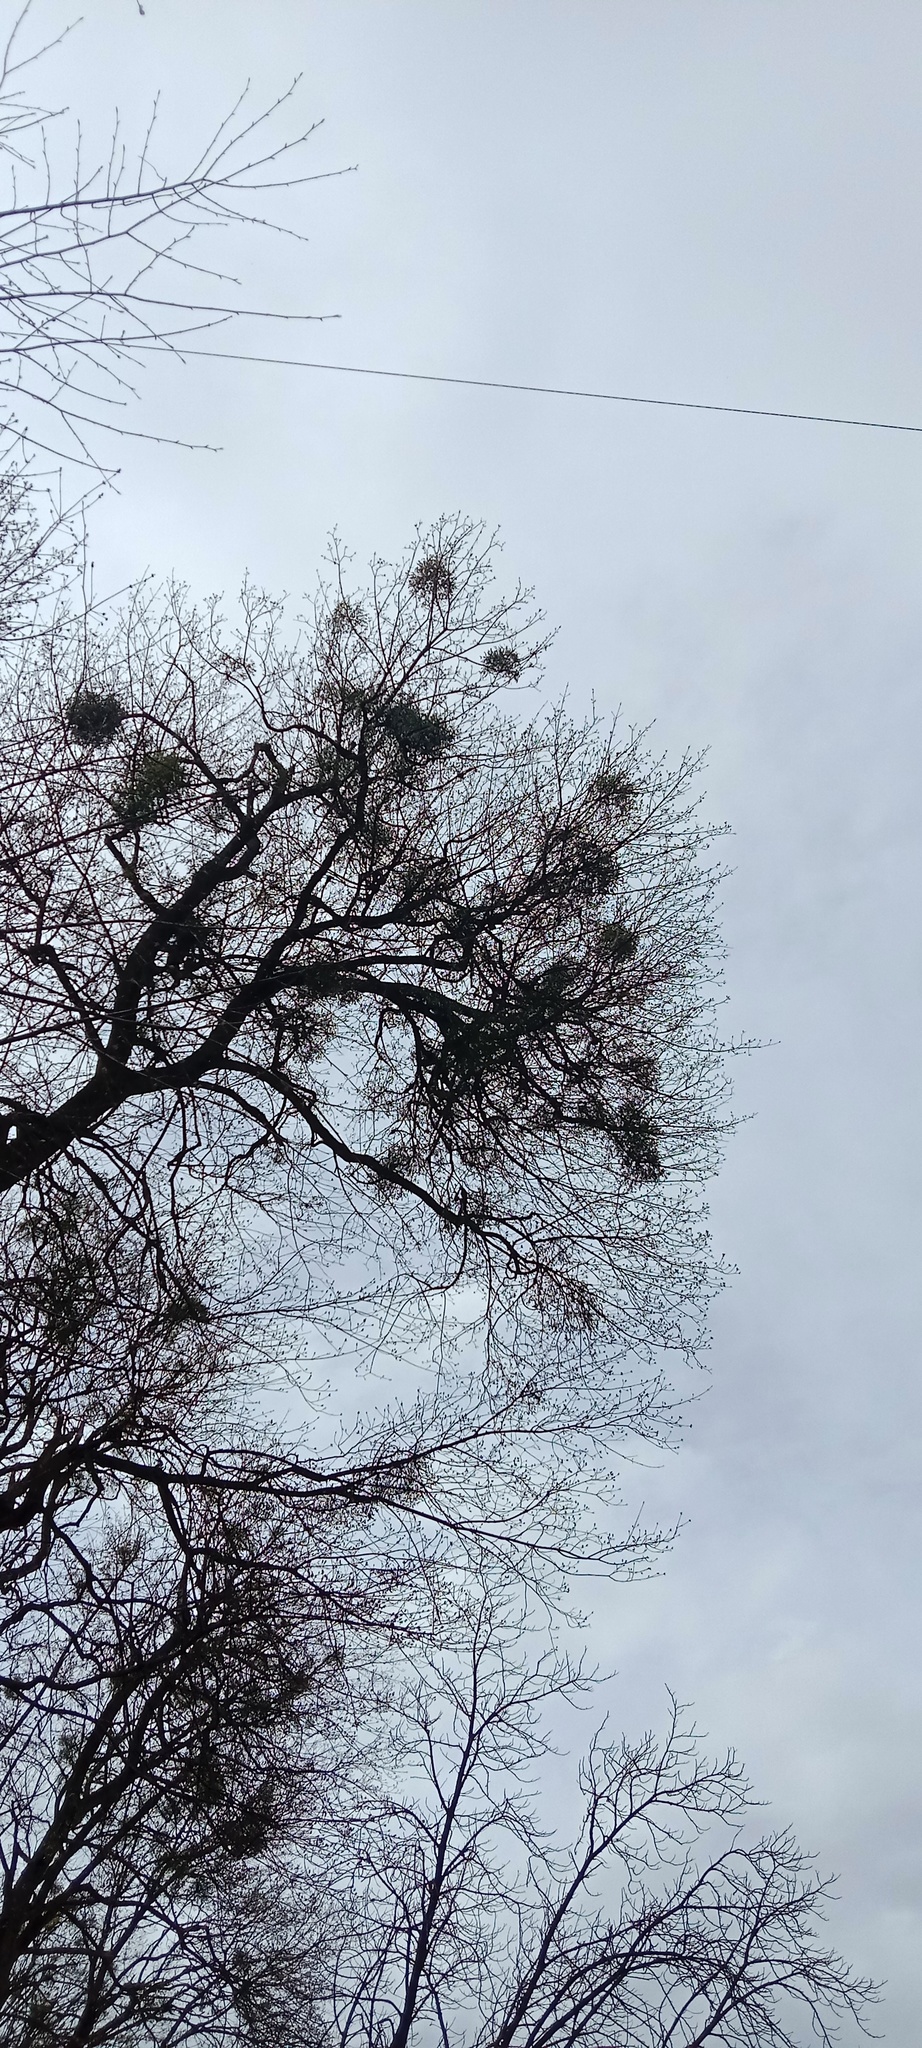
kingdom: Plantae
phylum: Tracheophyta
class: Magnoliopsida
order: Santalales
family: Viscaceae
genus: Viscum
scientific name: Viscum album
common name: Mistletoe
